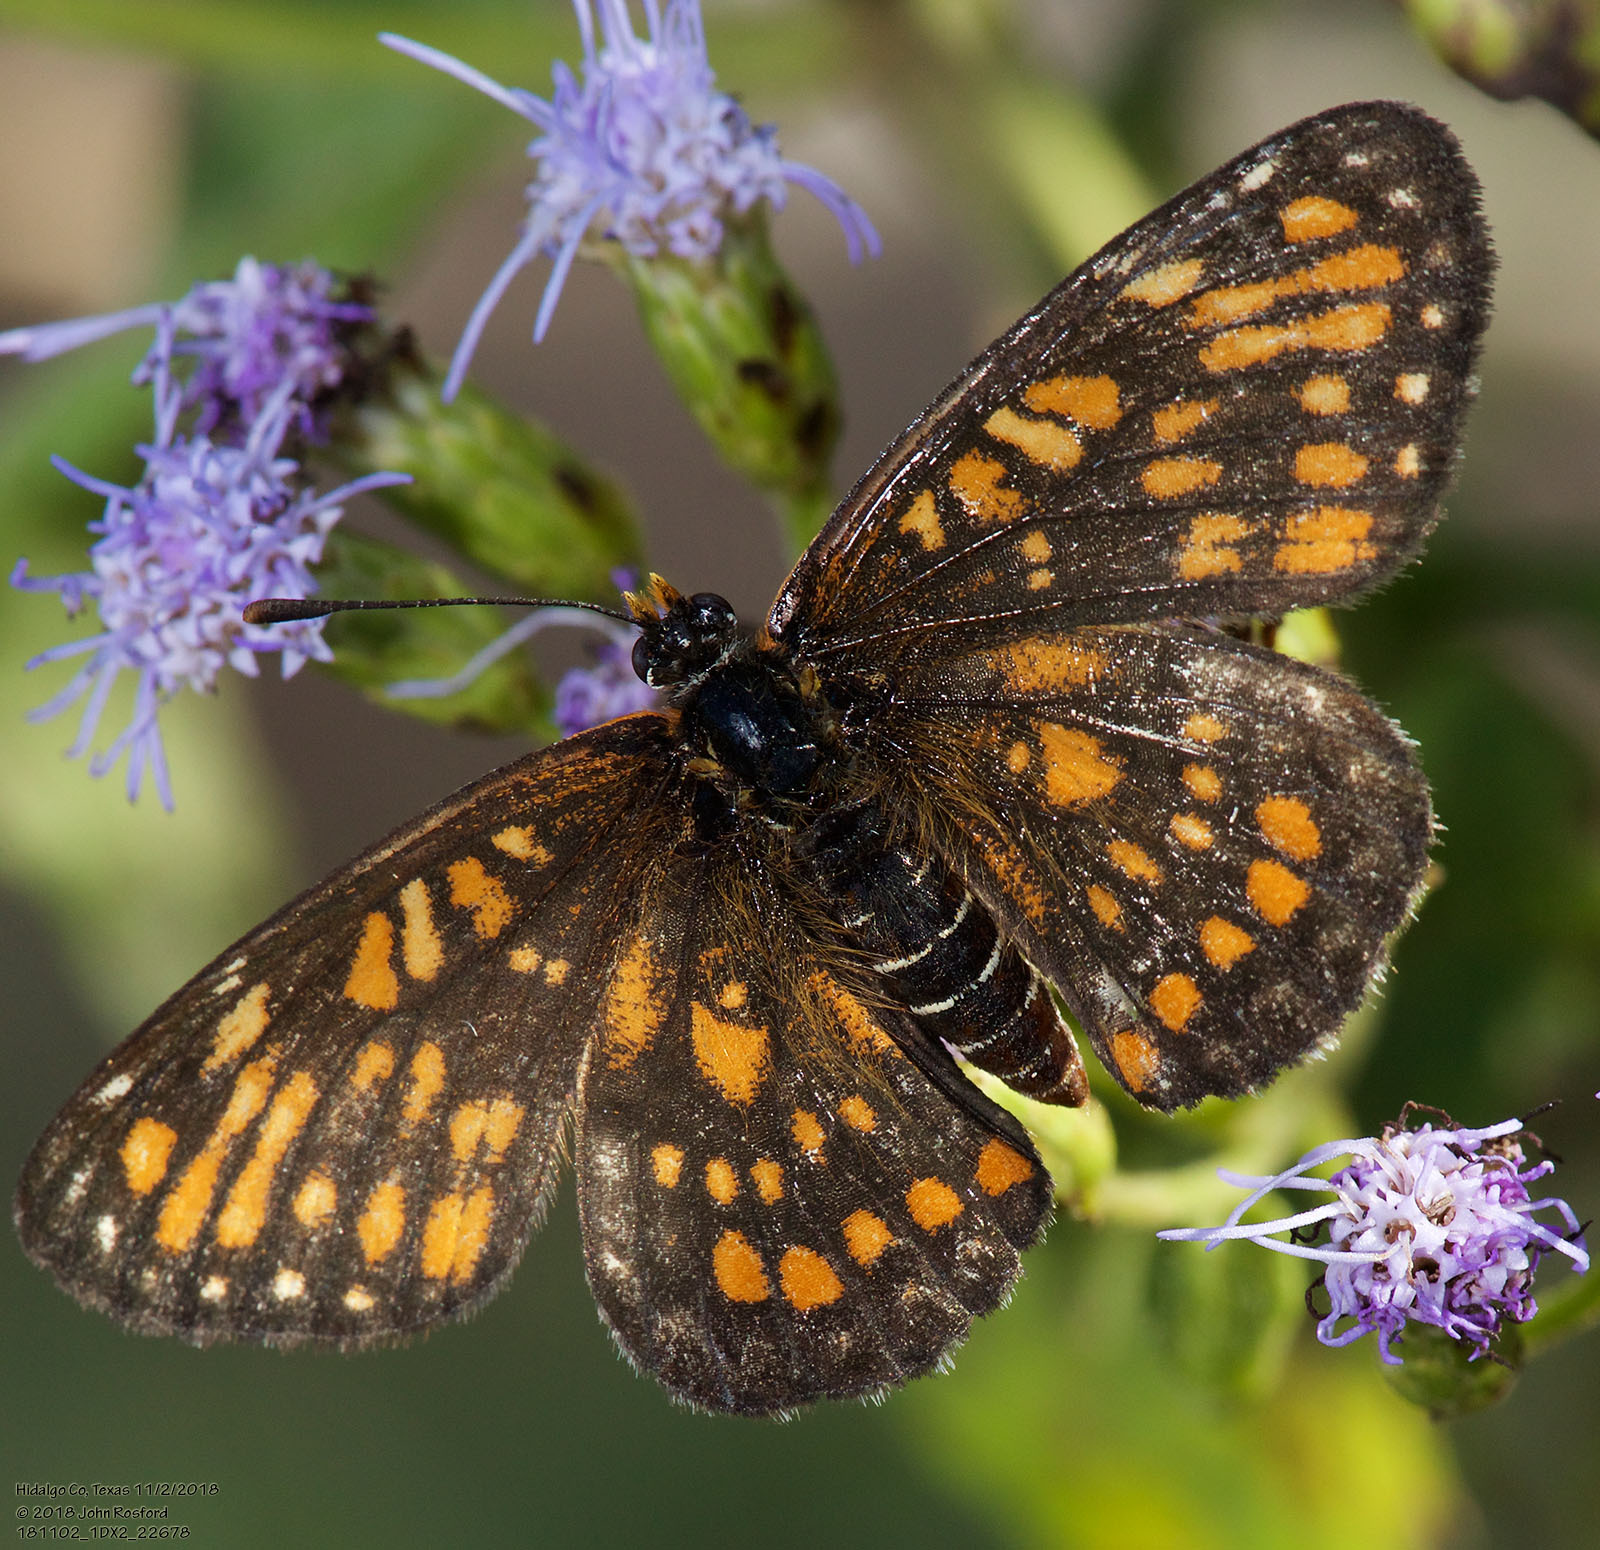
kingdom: Animalia
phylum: Arthropoda
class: Insecta
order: Lepidoptera
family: Nymphalidae
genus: Chlosyne
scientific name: Chlosyne definita
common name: Definite patch
